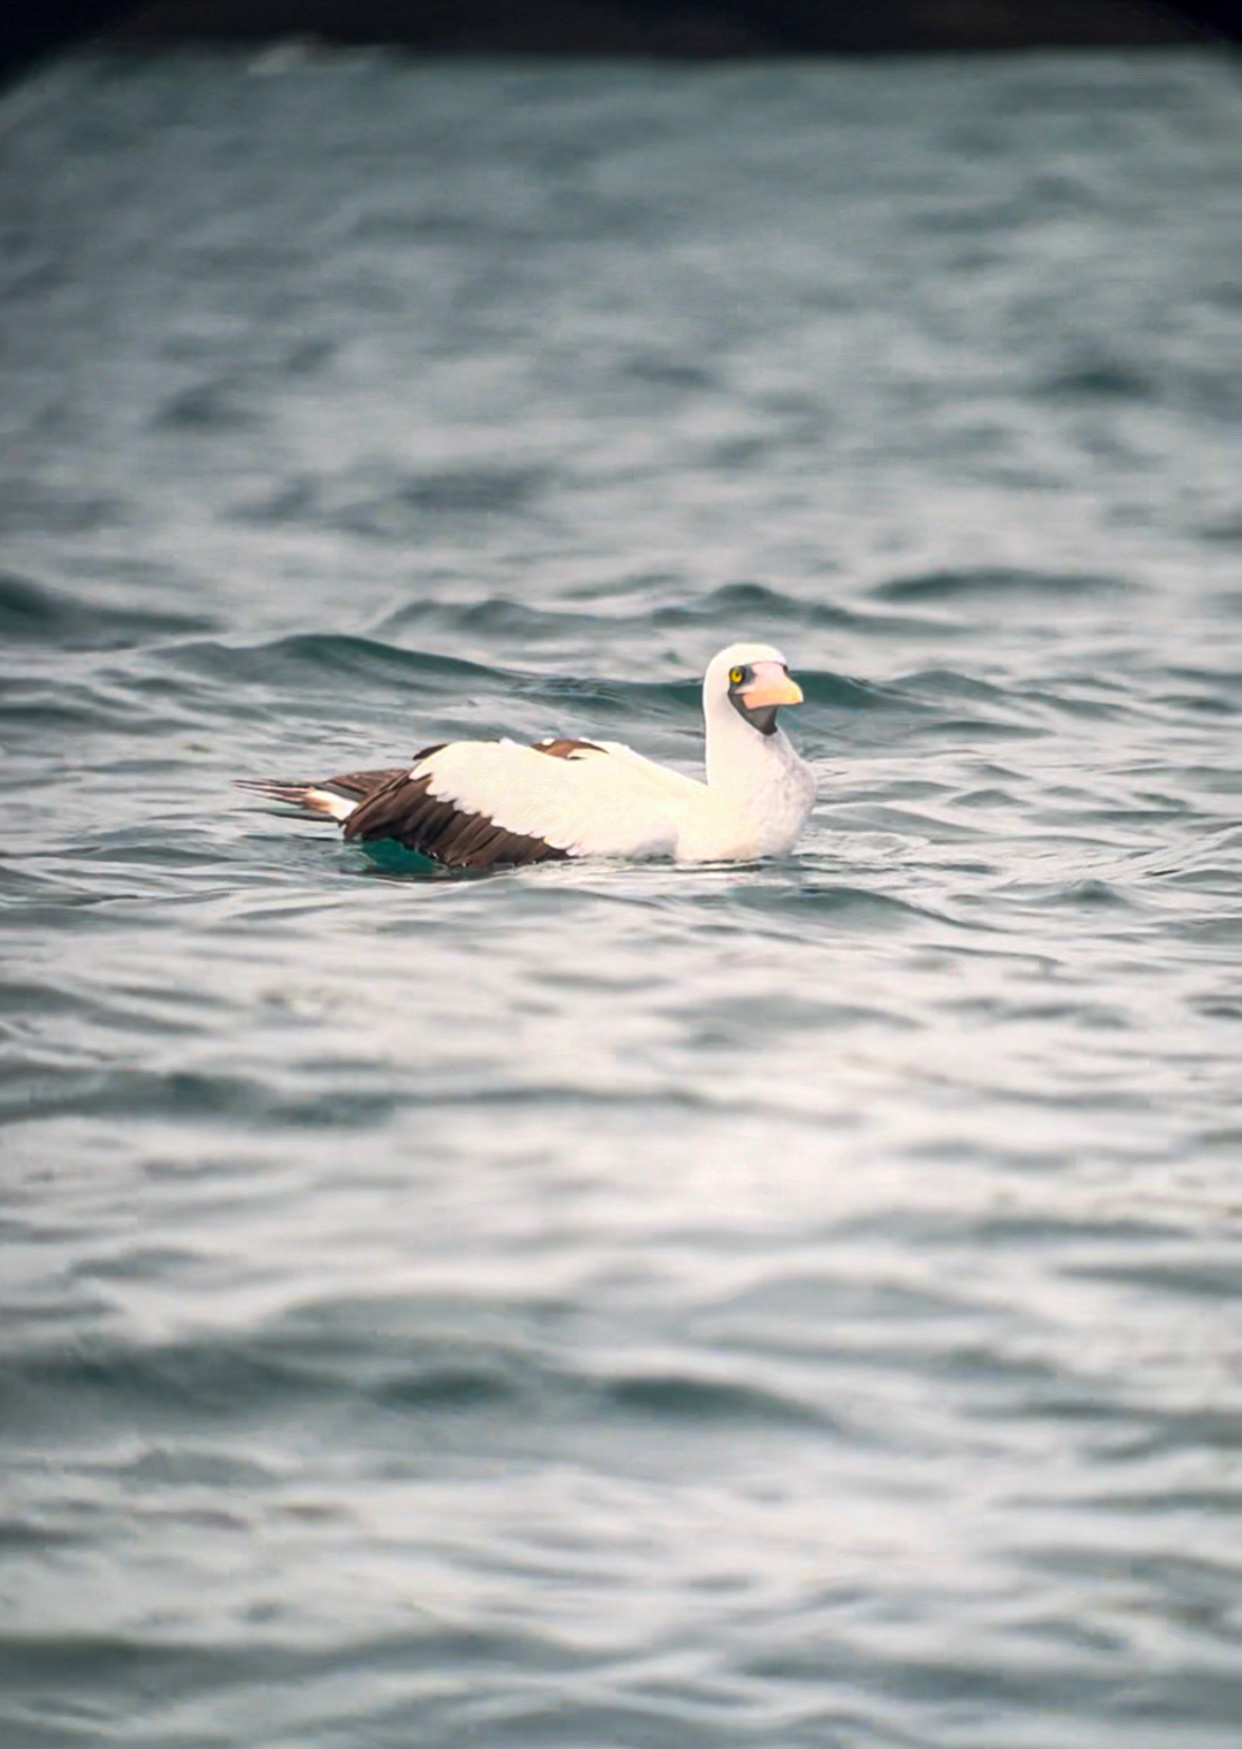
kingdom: Animalia
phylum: Chordata
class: Aves
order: Suliformes
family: Sulidae
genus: Sula
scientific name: Sula granti
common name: Nazca booby
